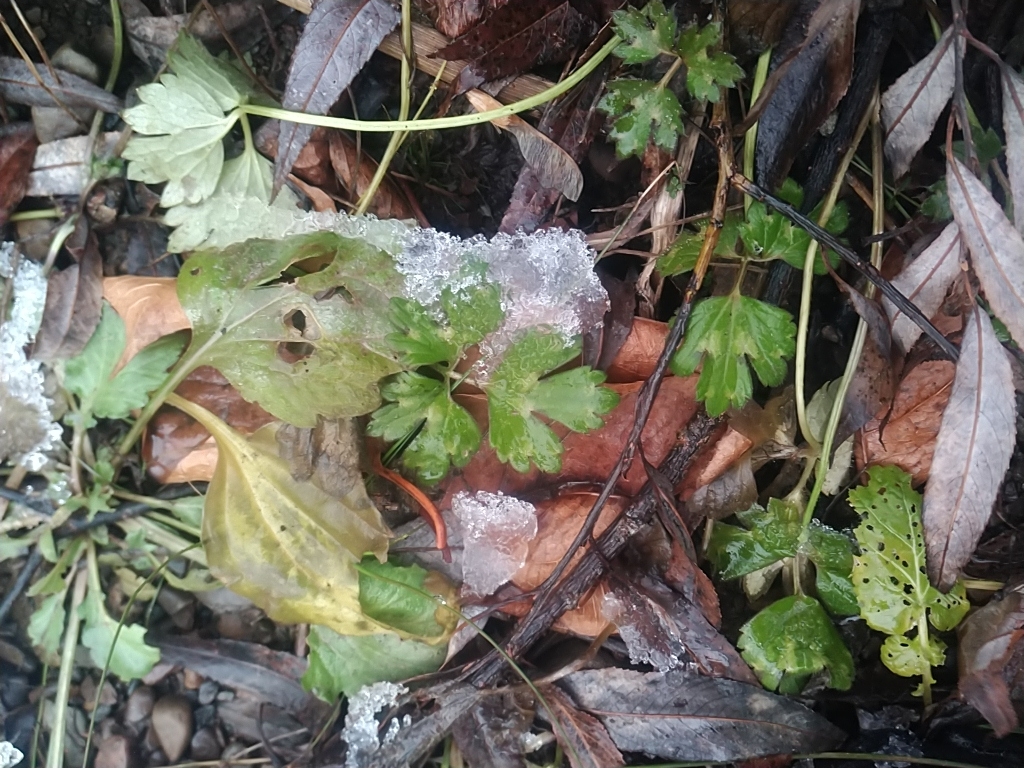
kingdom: Plantae
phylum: Tracheophyta
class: Magnoliopsida
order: Ranunculales
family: Ranunculaceae
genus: Ranunculus
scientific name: Ranunculus repens
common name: Creeping buttercup
